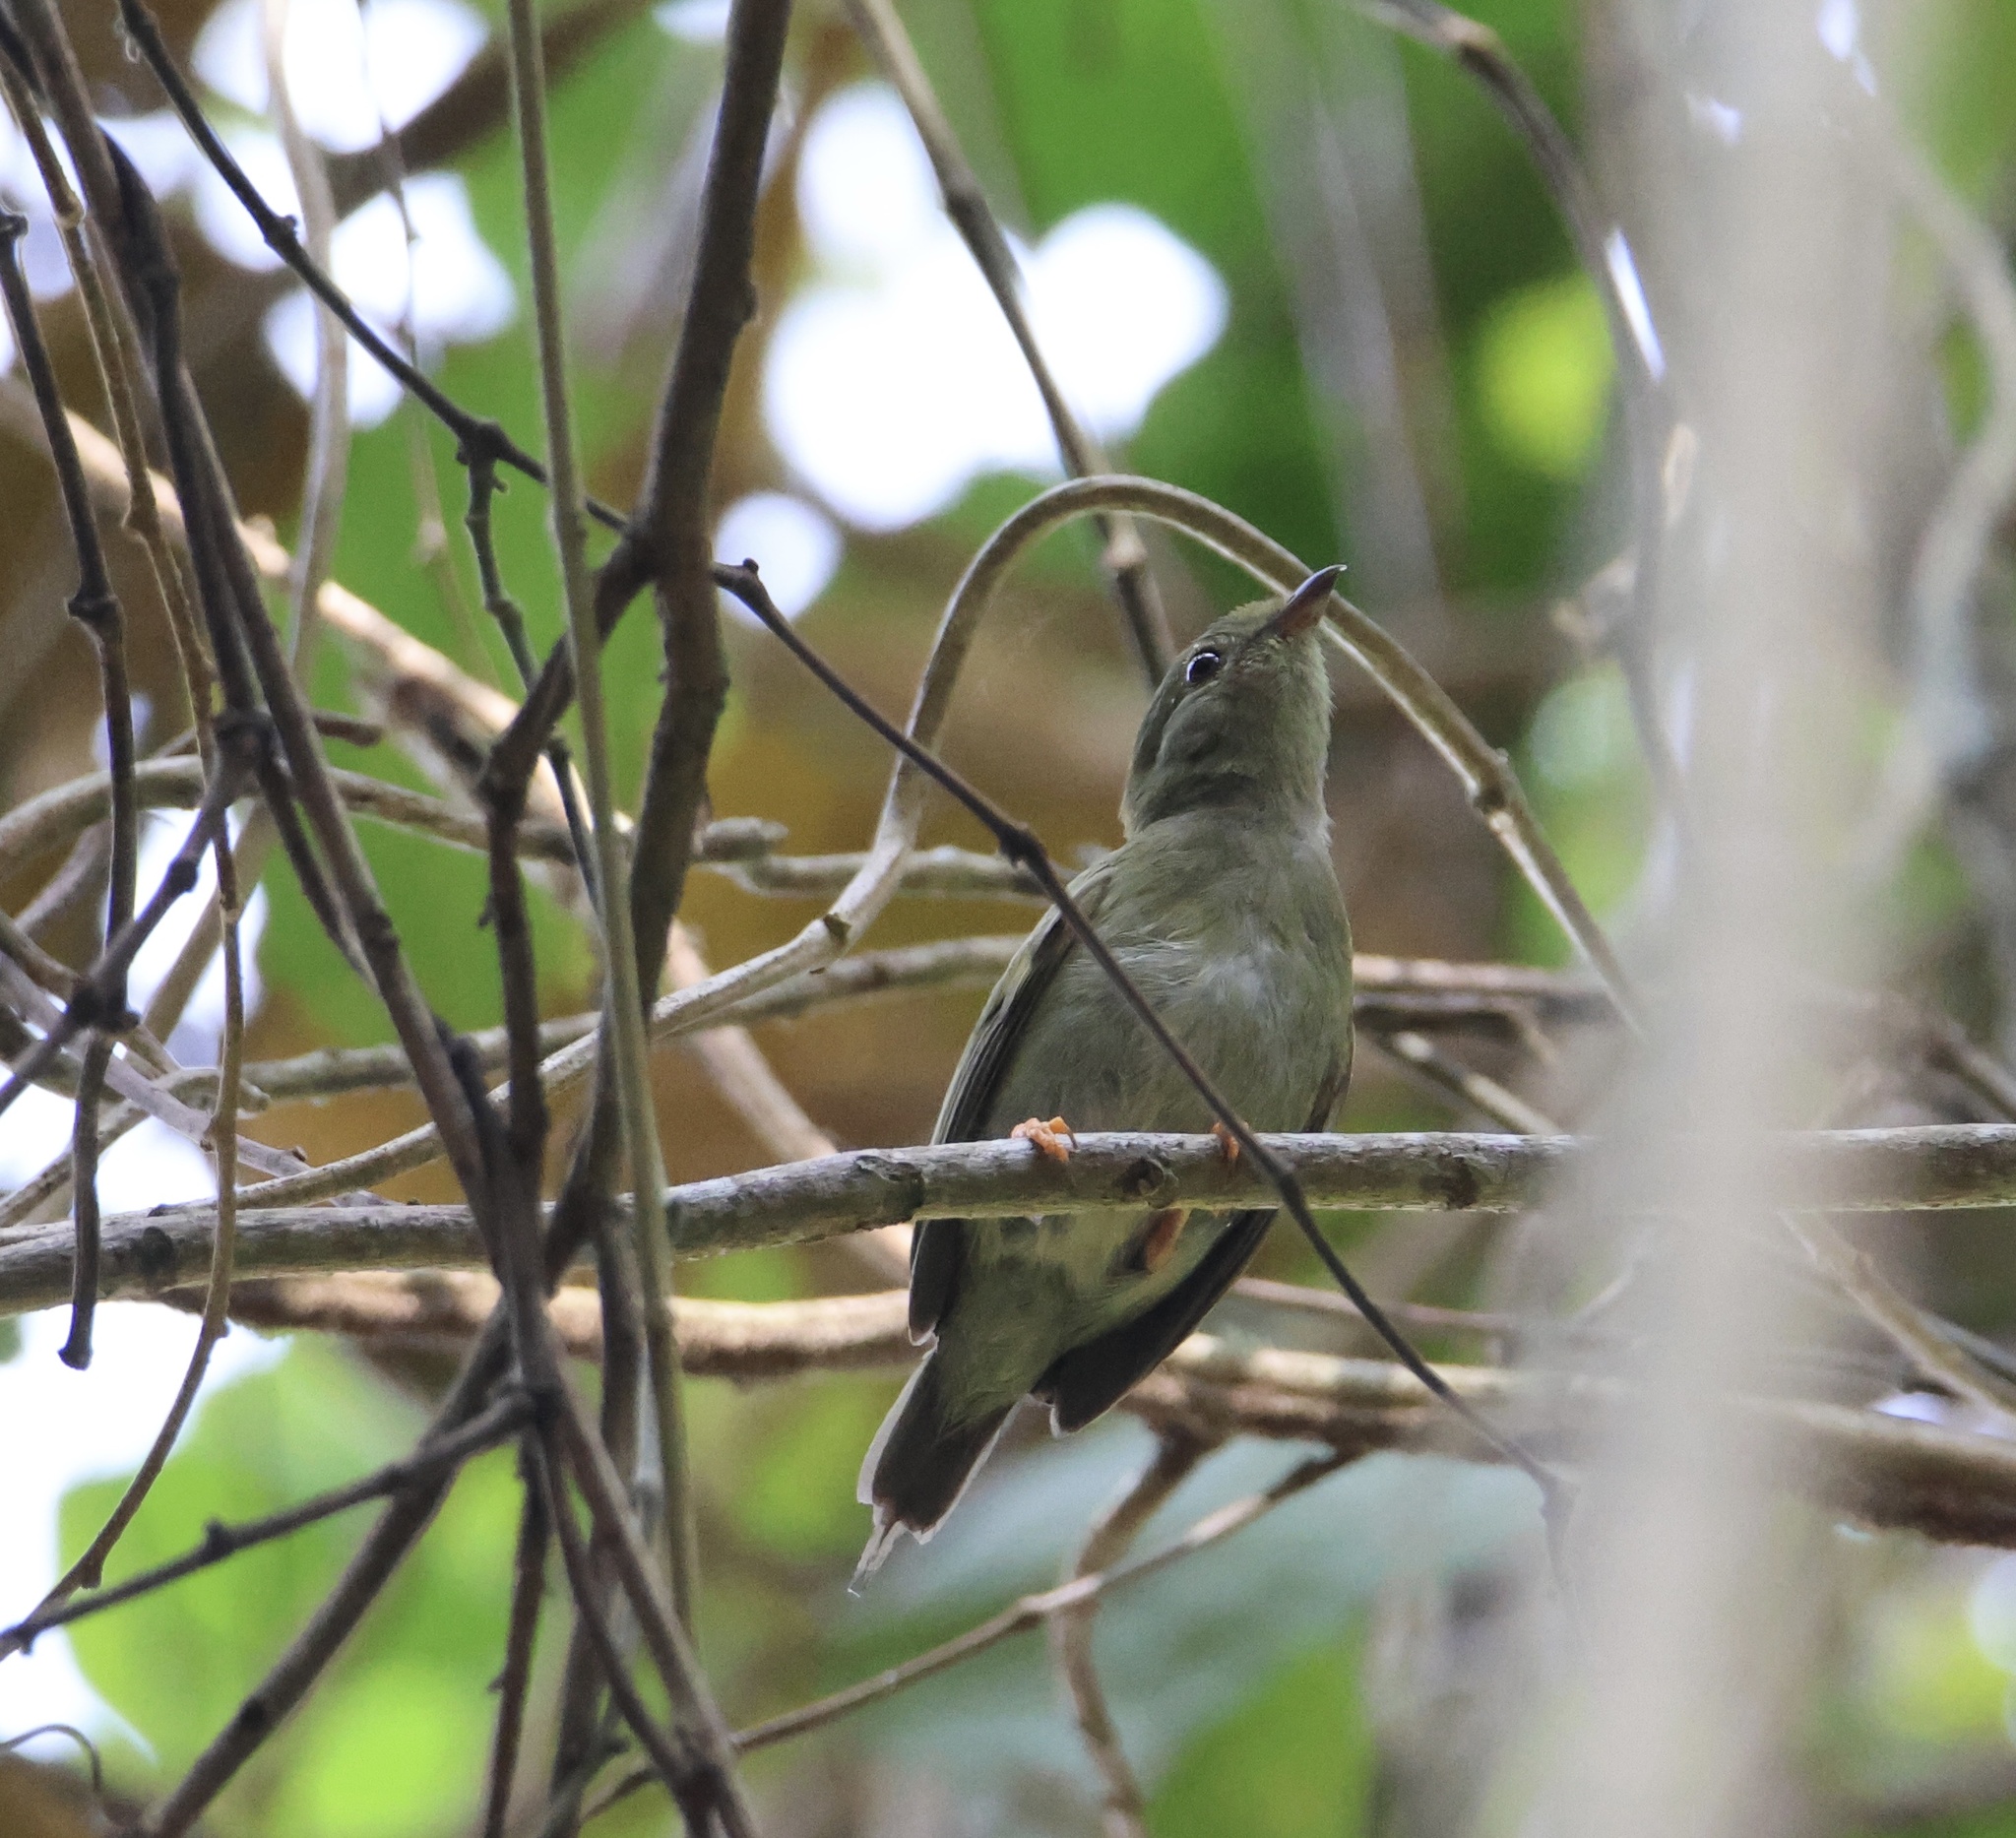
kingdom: Animalia
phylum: Chordata
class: Aves
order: Passeriformes
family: Pipridae
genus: Chiroxiphia
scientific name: Chiroxiphia lanceolata
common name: Lance-tailed manakin
